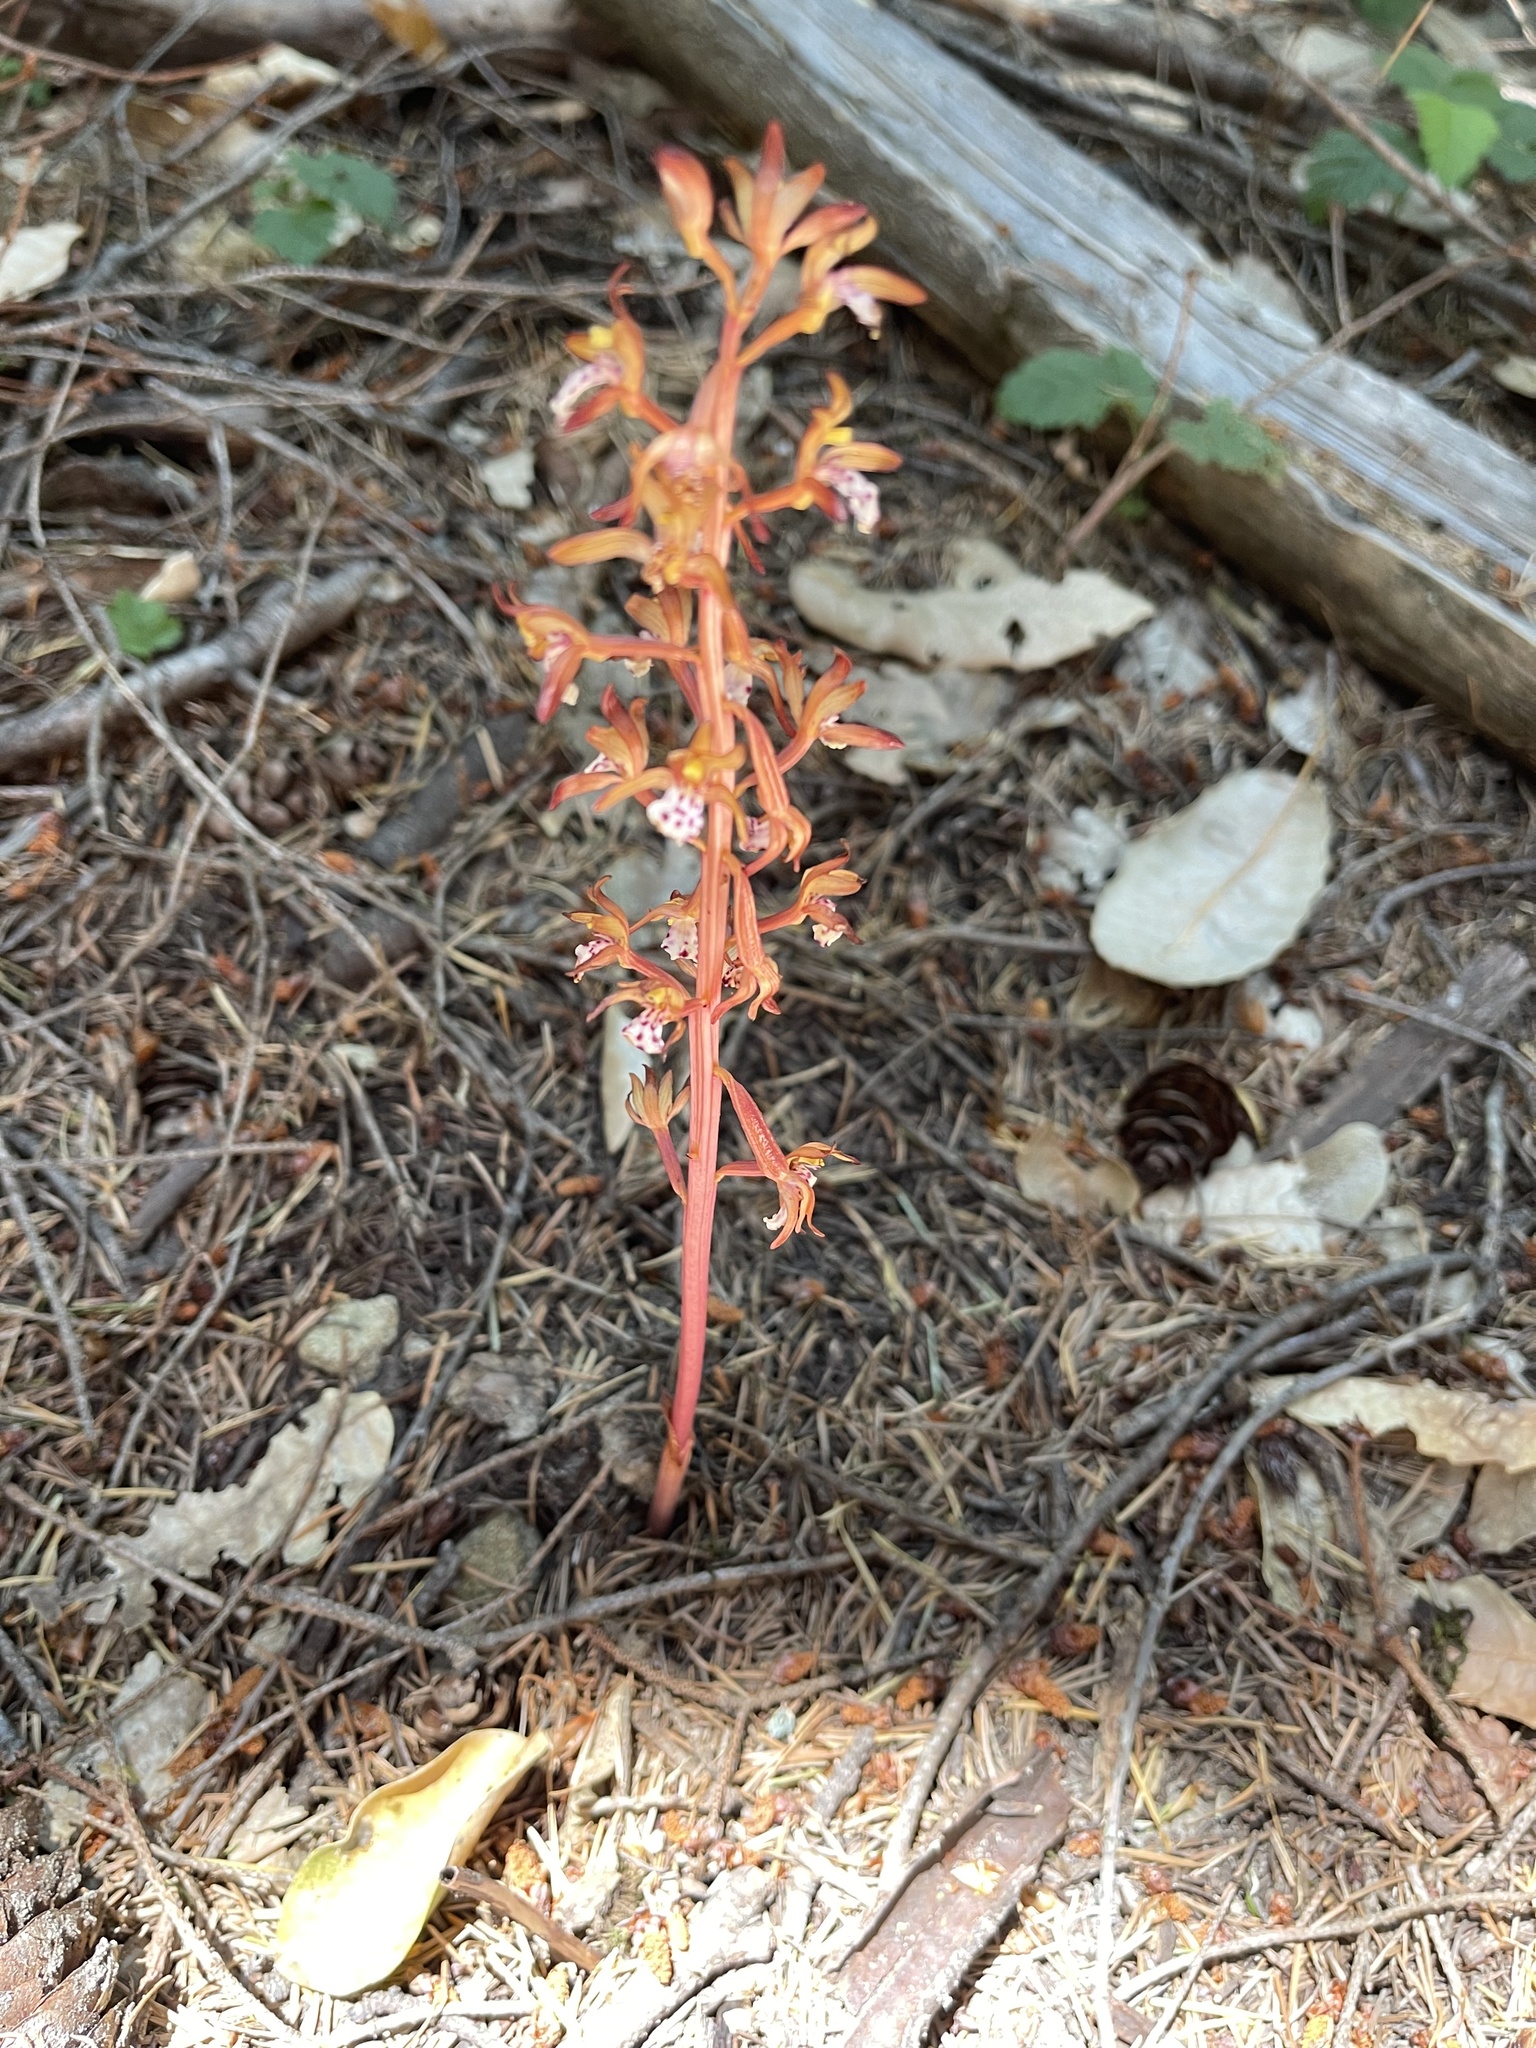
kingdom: Plantae
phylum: Tracheophyta
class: Liliopsida
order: Asparagales
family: Orchidaceae
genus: Corallorhiza
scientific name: Corallorhiza maculata
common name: Spotted coralroot
